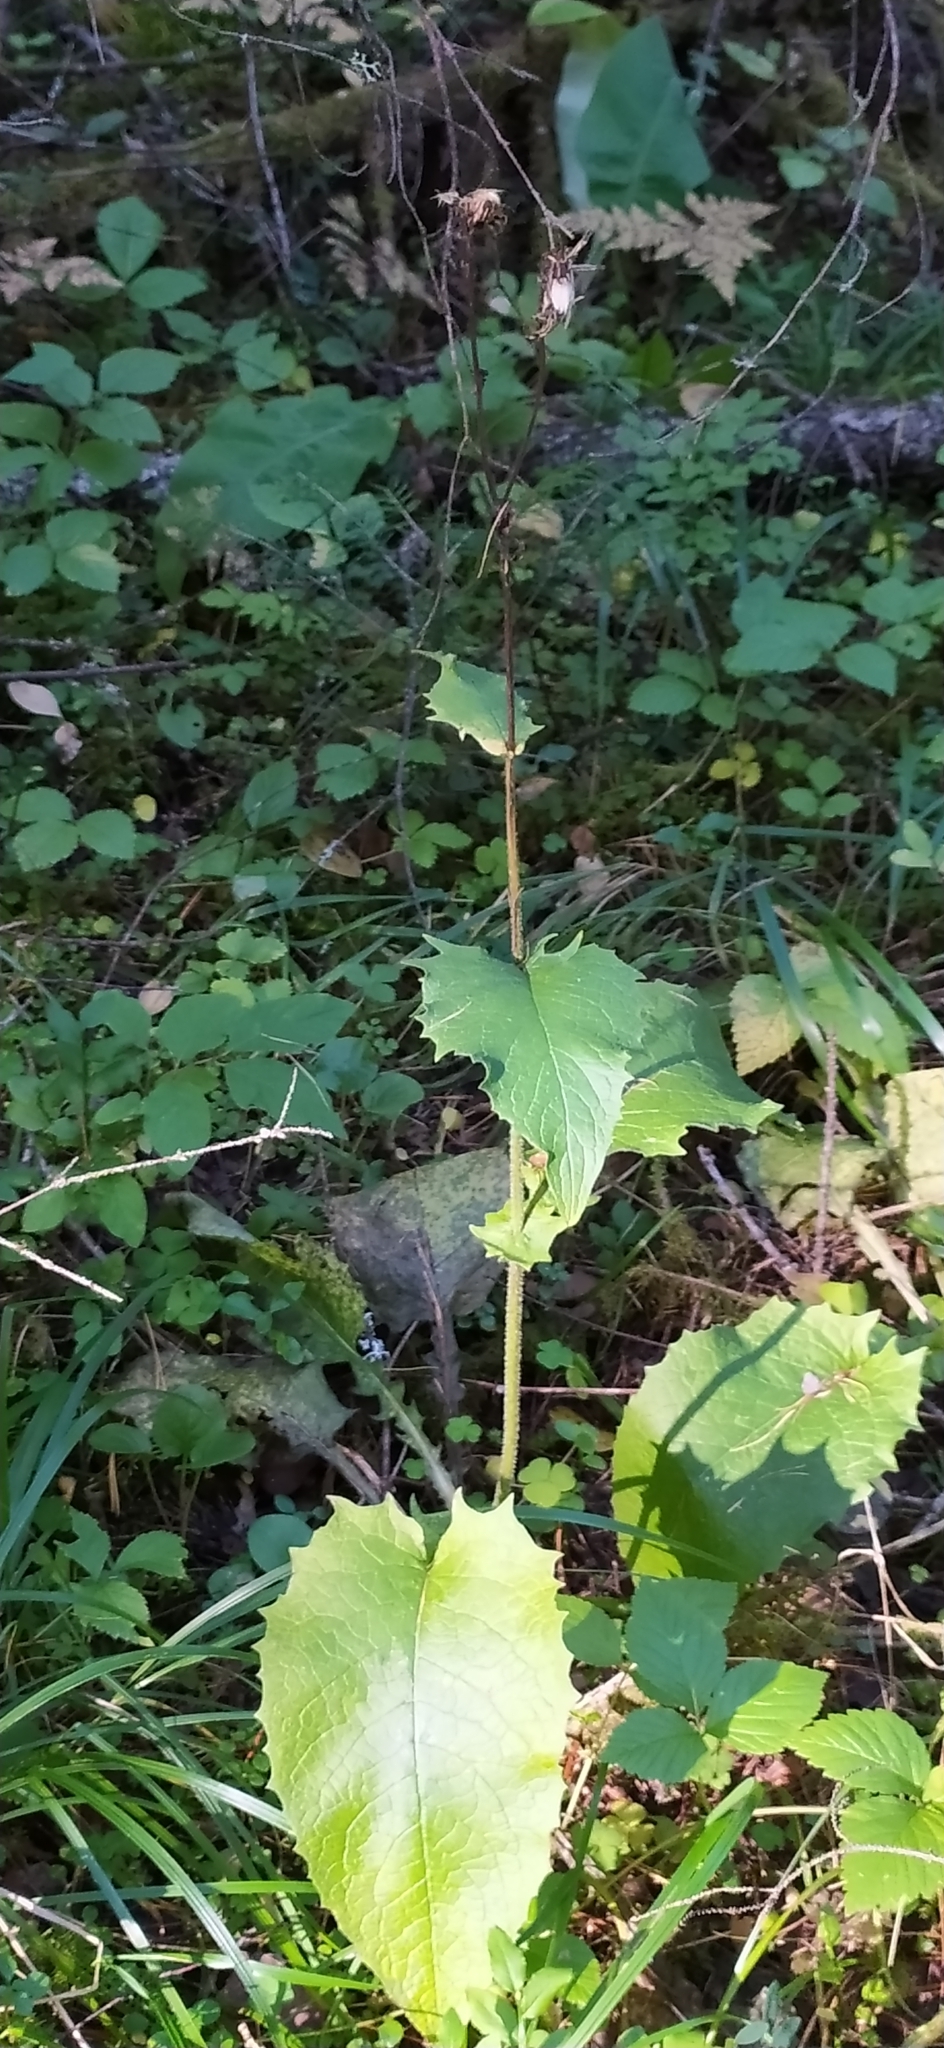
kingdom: Plantae
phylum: Tracheophyta
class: Magnoliopsida
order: Asterales
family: Asteraceae
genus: Crepis
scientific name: Crepis sibirica
